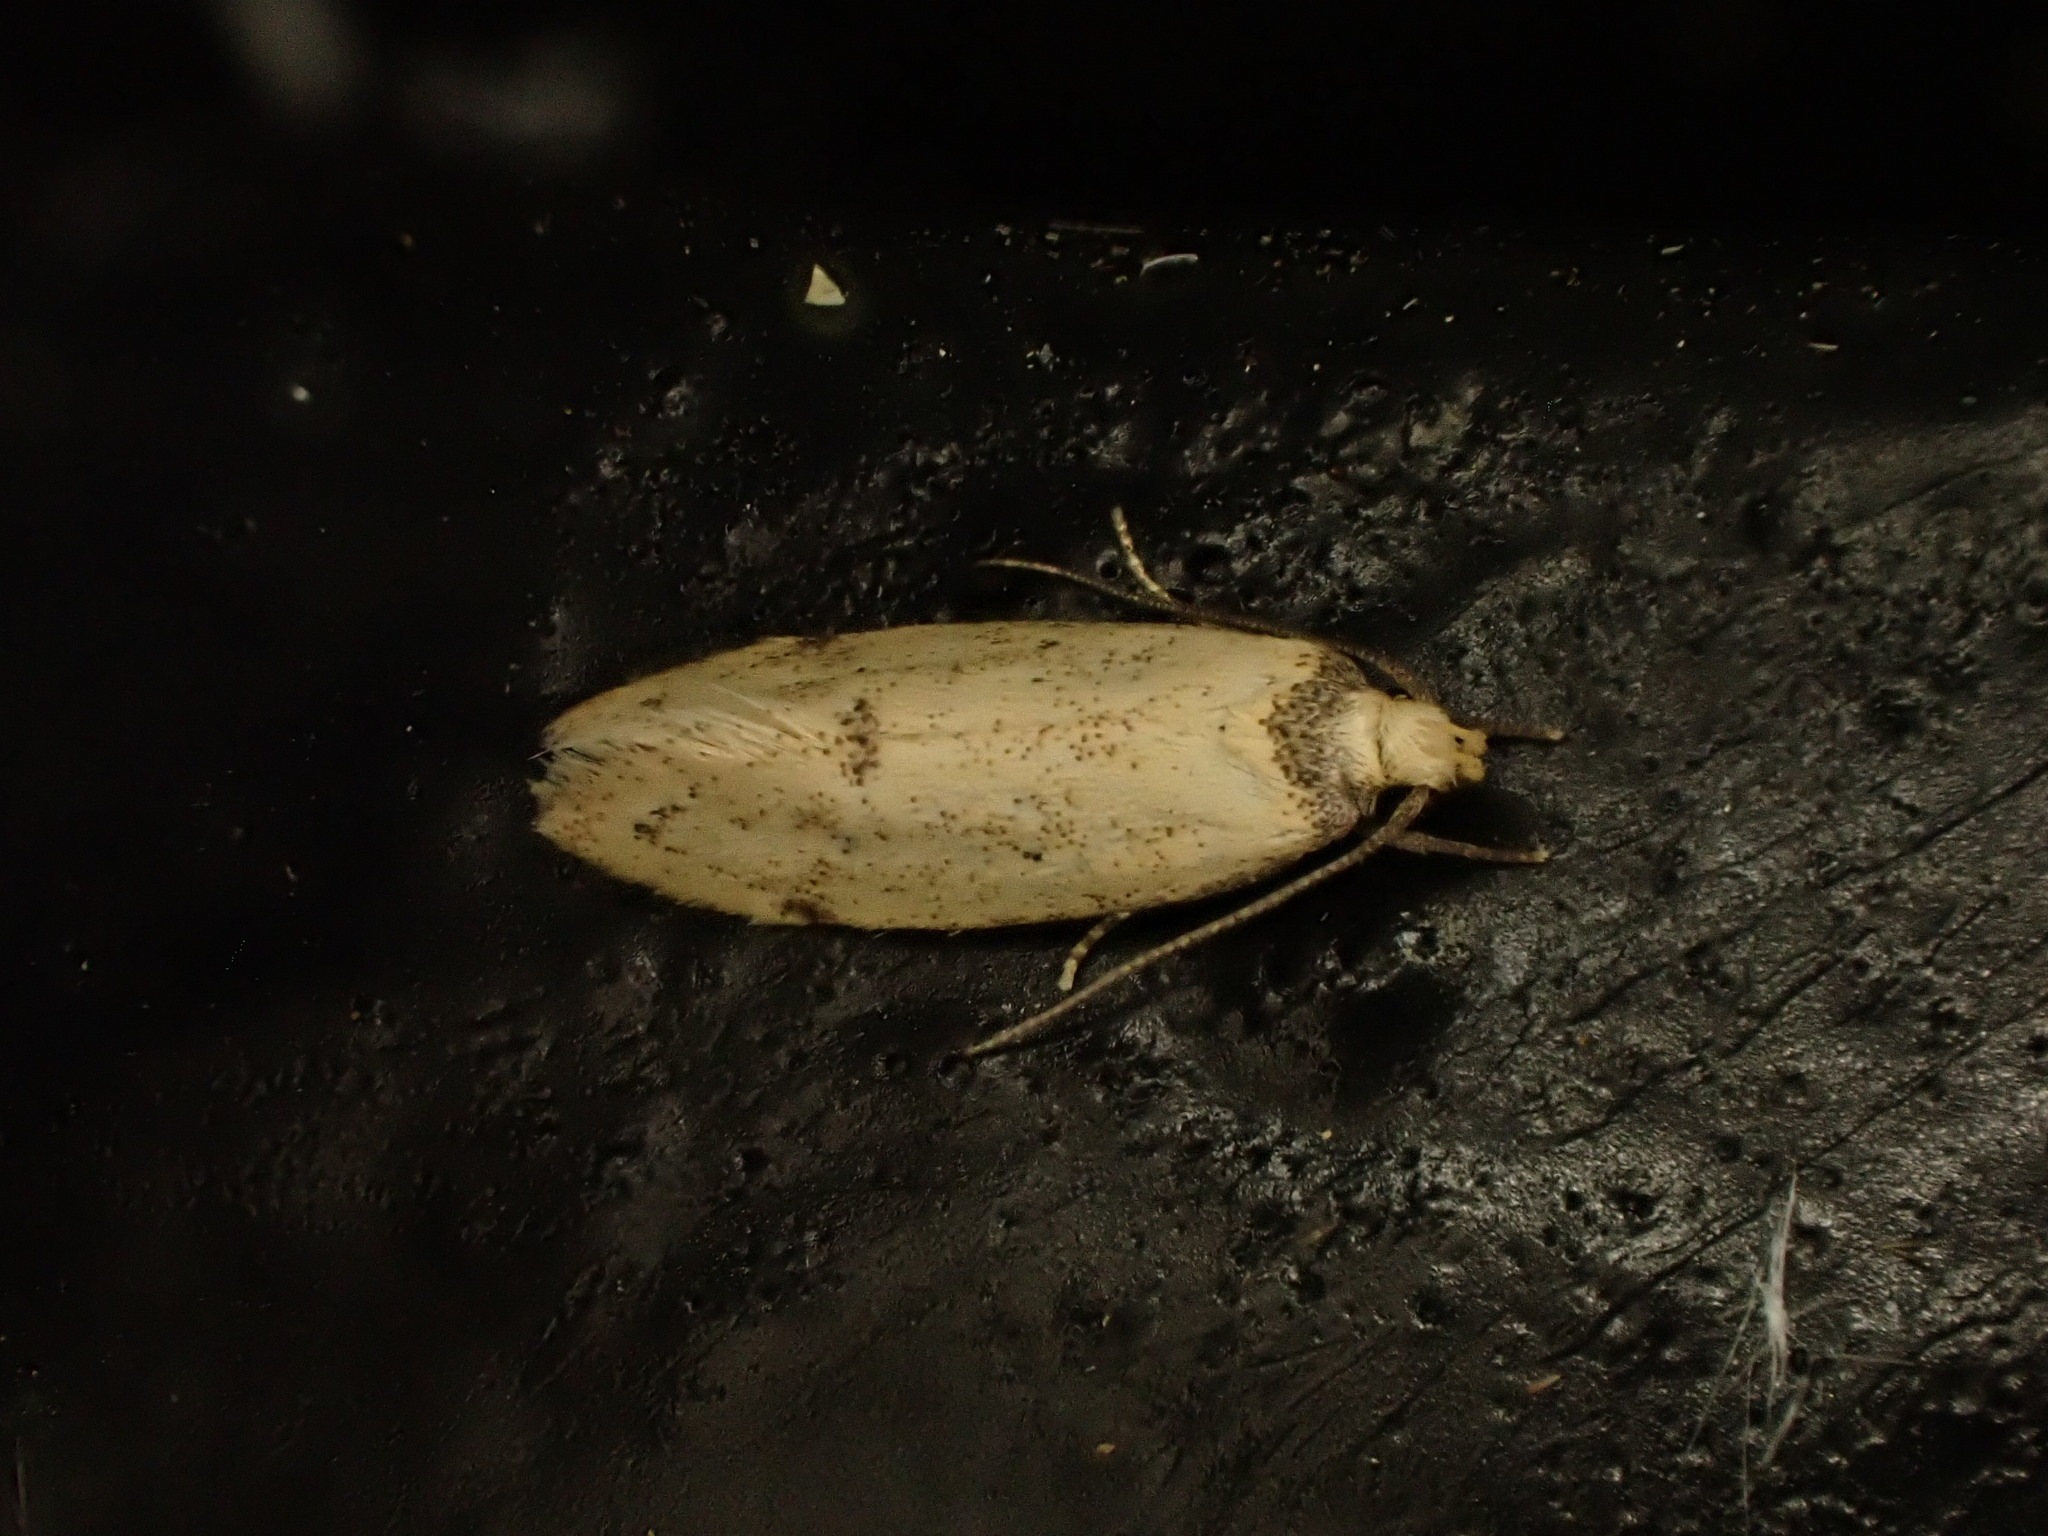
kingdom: Animalia
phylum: Arthropoda
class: Insecta
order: Lepidoptera
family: Oecophoridae
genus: Atalopsis
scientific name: Atalopsis
